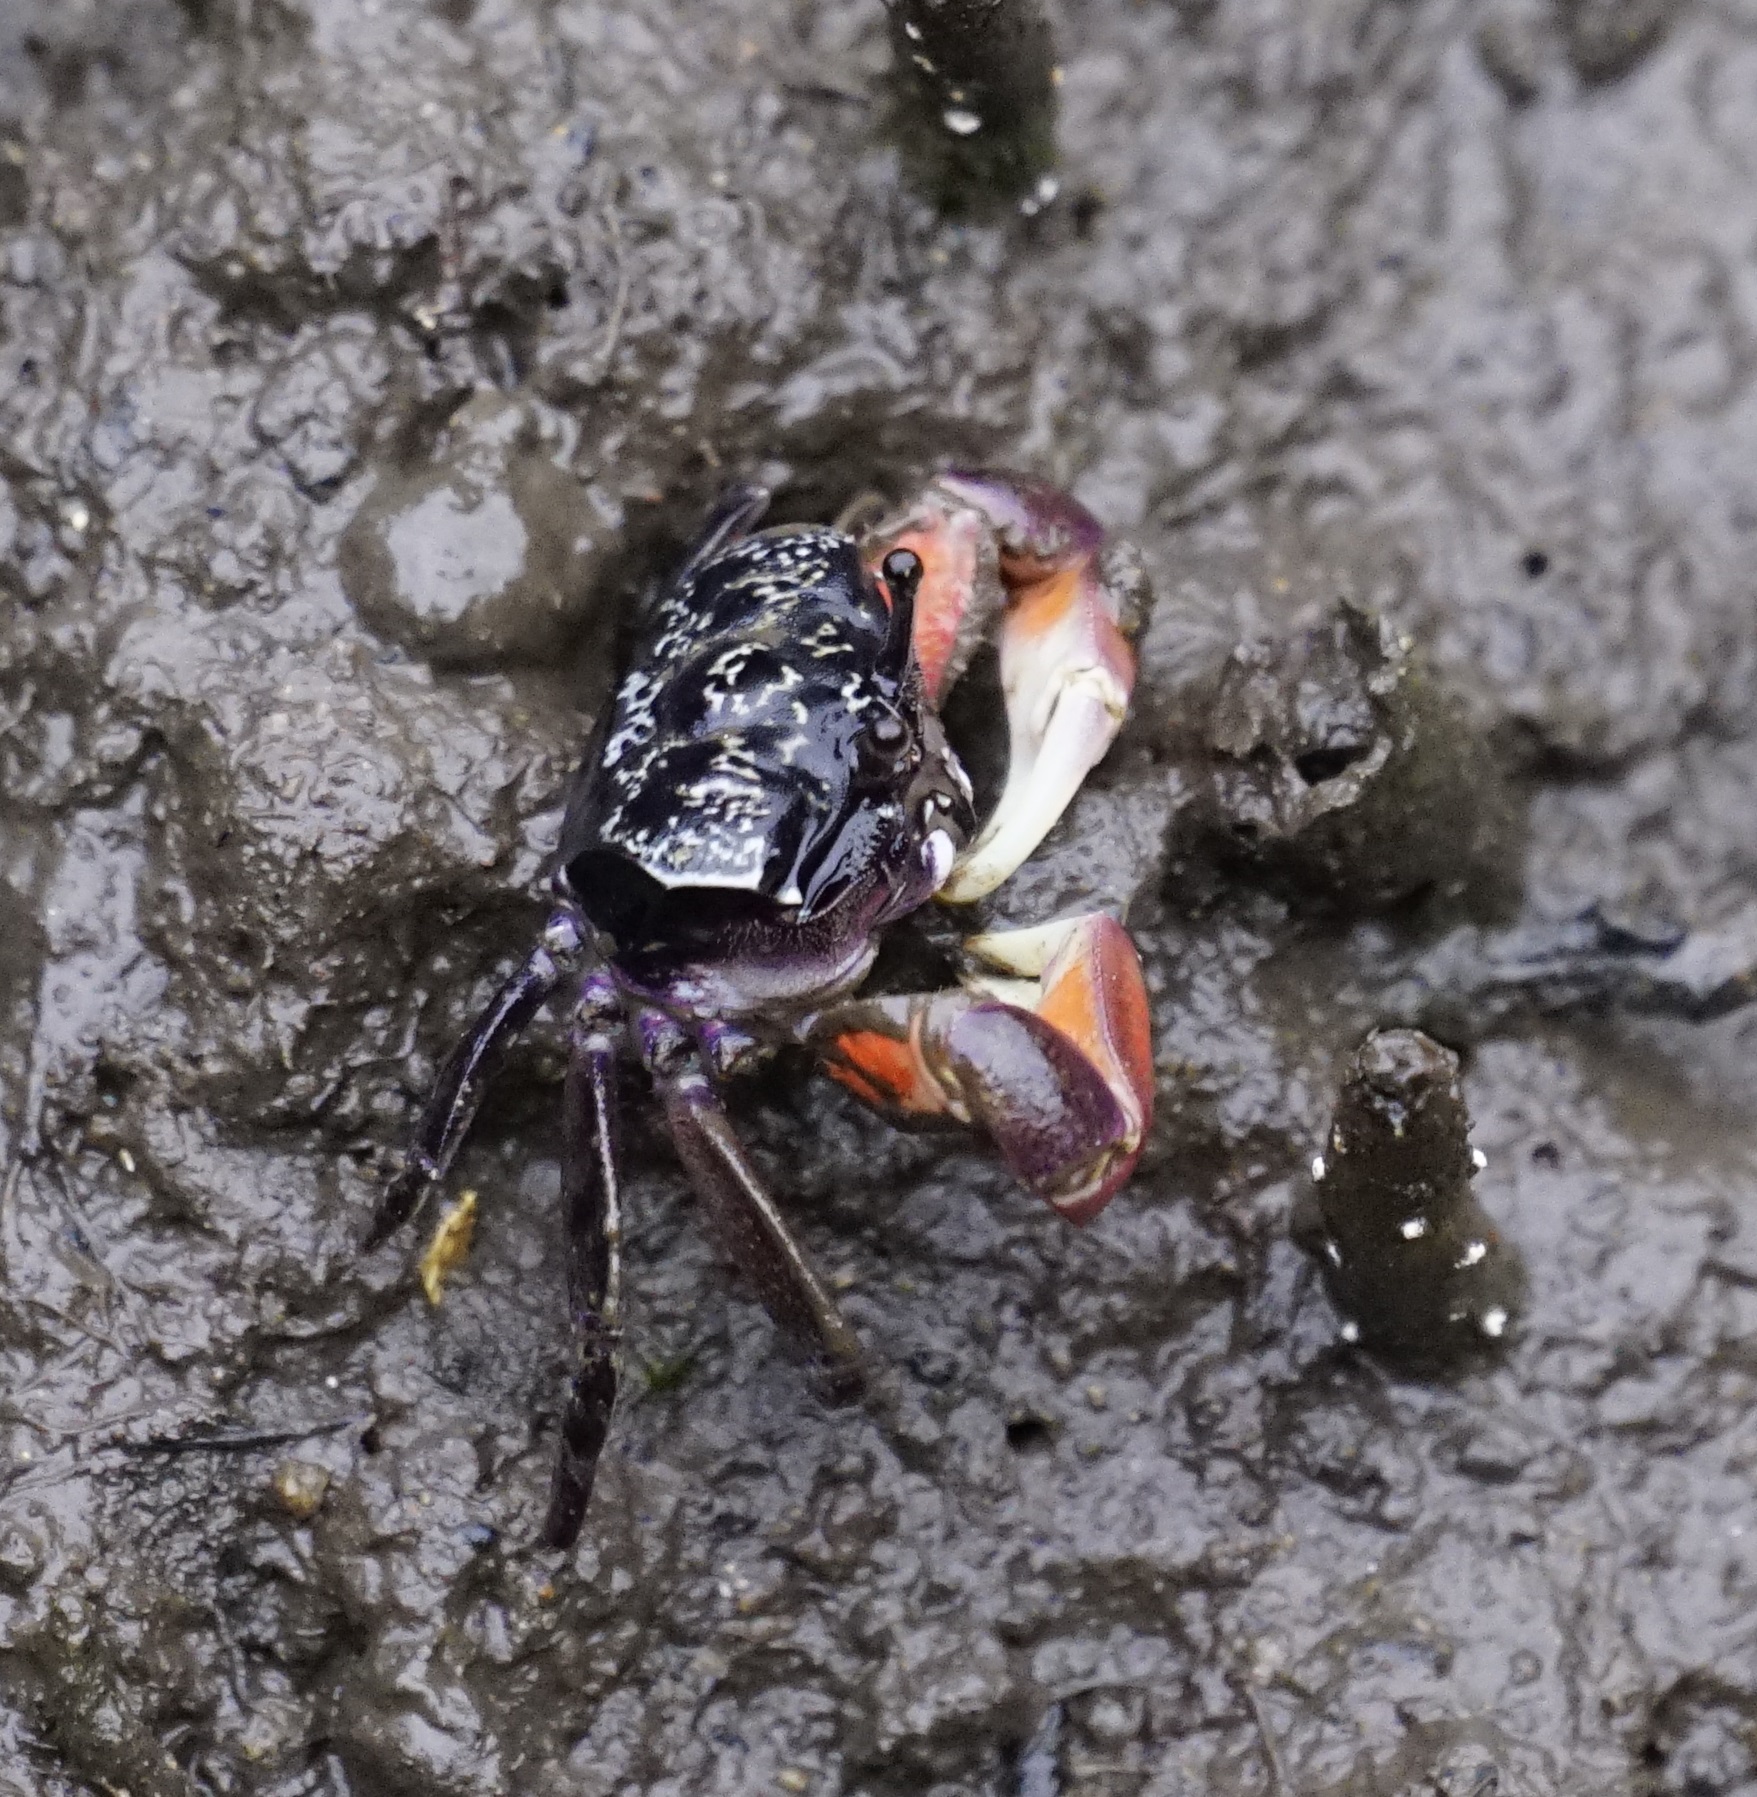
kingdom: Animalia
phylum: Arthropoda
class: Malacostraca
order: Decapoda
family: Heloeciidae
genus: Heloecius
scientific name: Heloecius cordiformis
